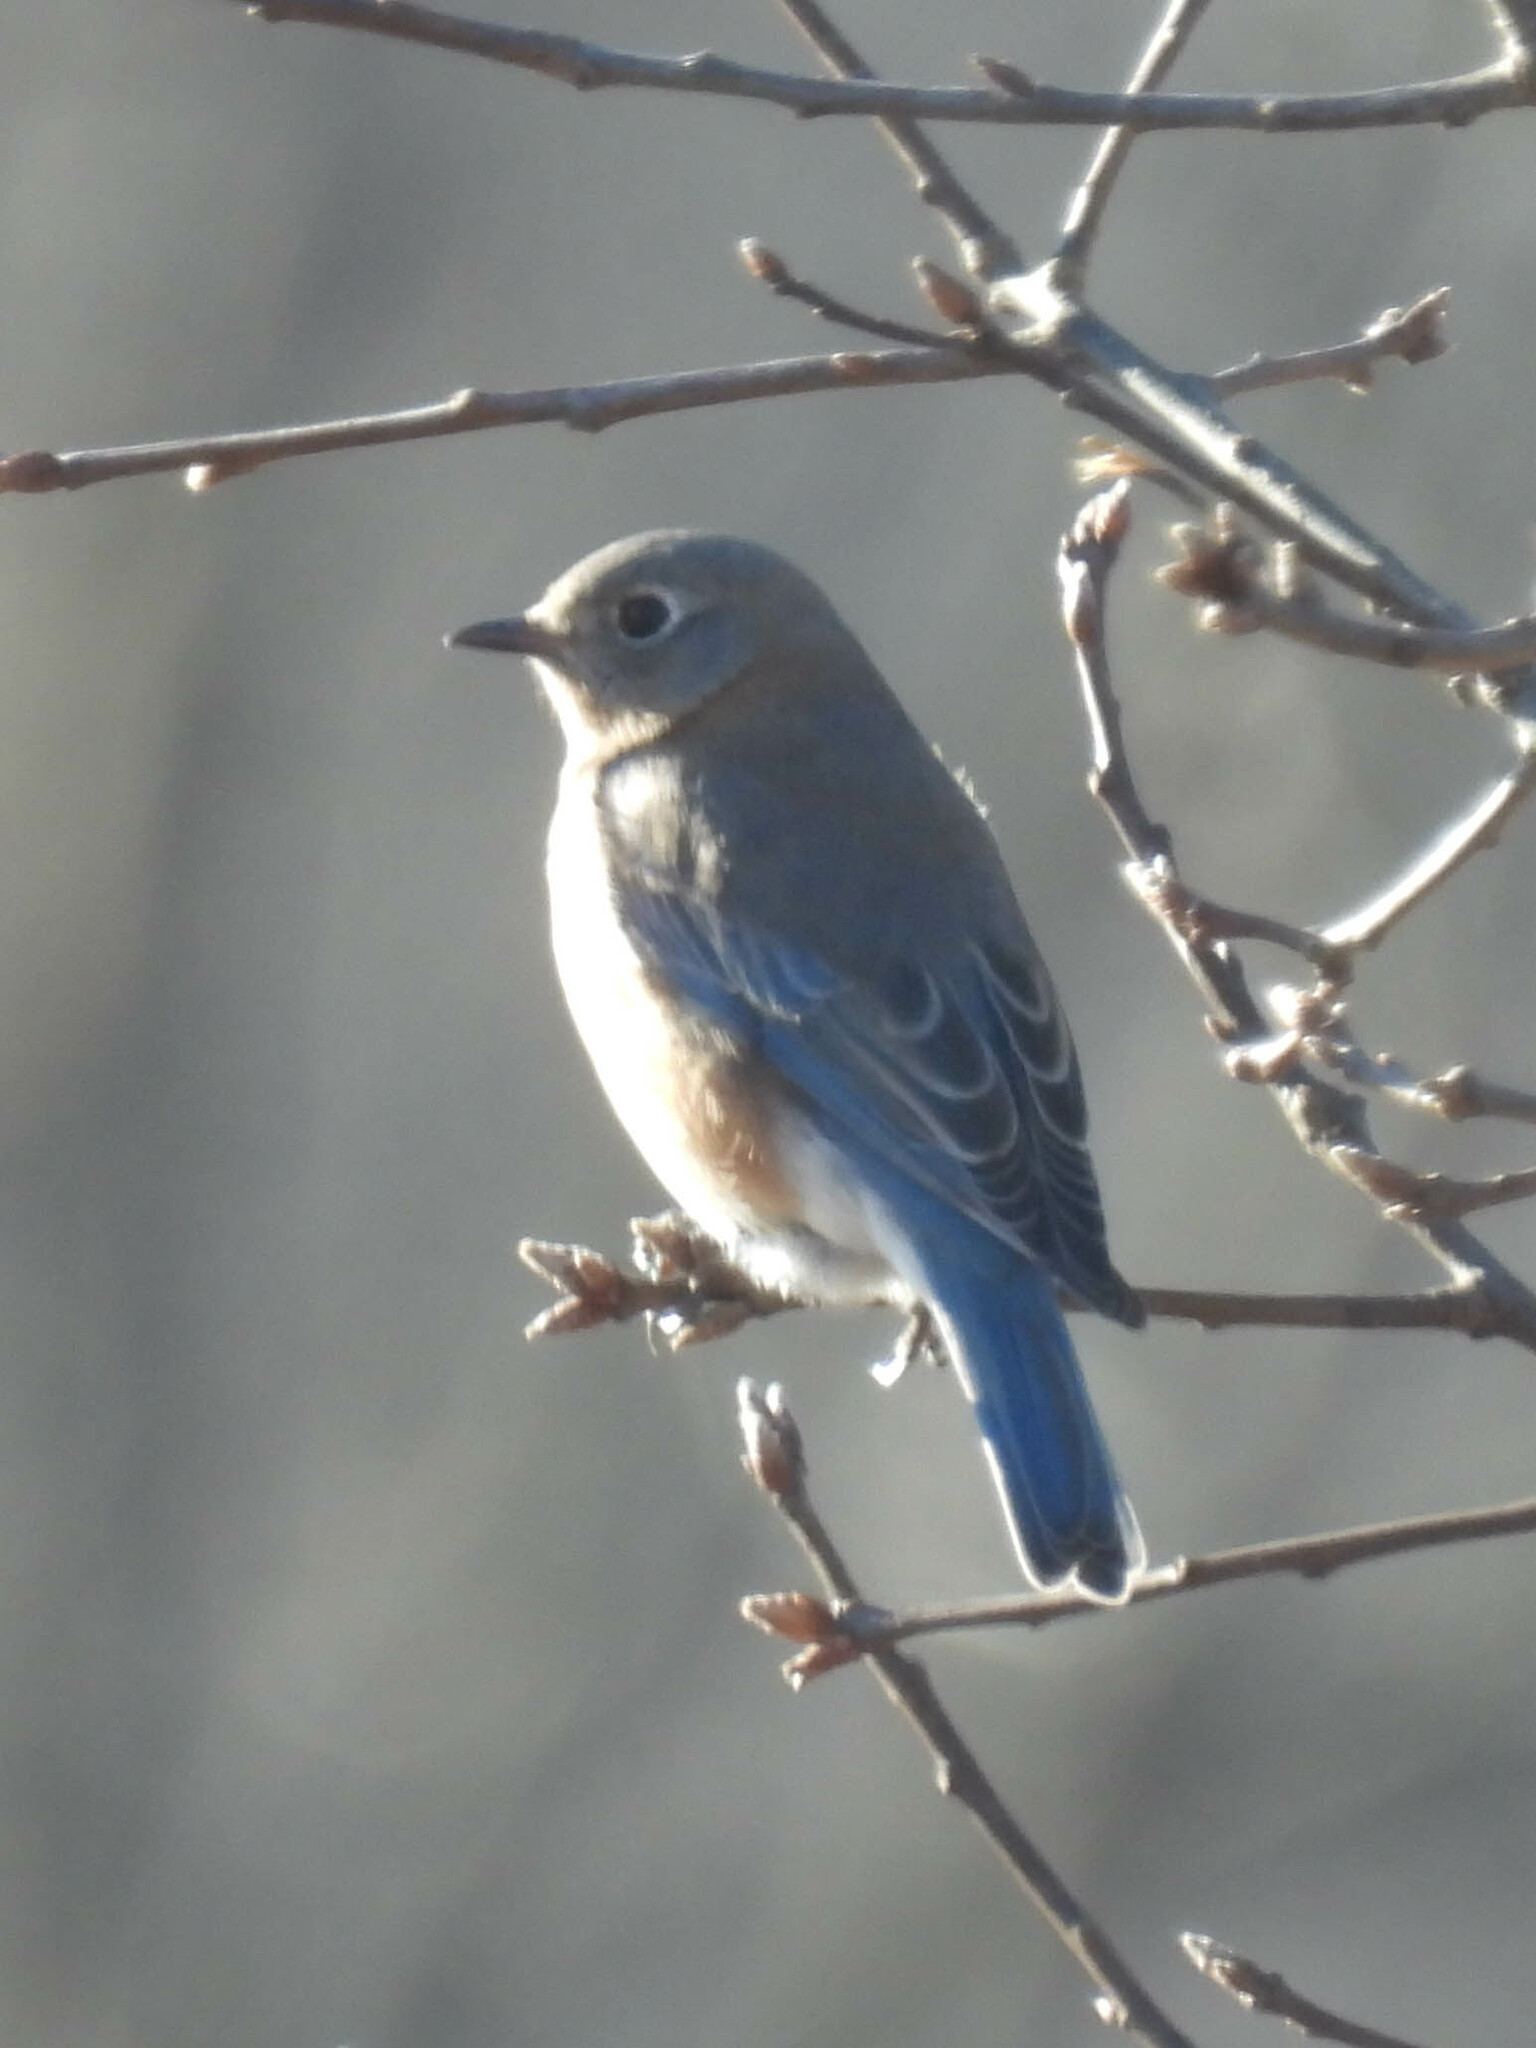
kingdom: Animalia
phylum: Chordata
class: Aves
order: Passeriformes
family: Turdidae
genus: Sialia
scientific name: Sialia sialis
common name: Eastern bluebird
